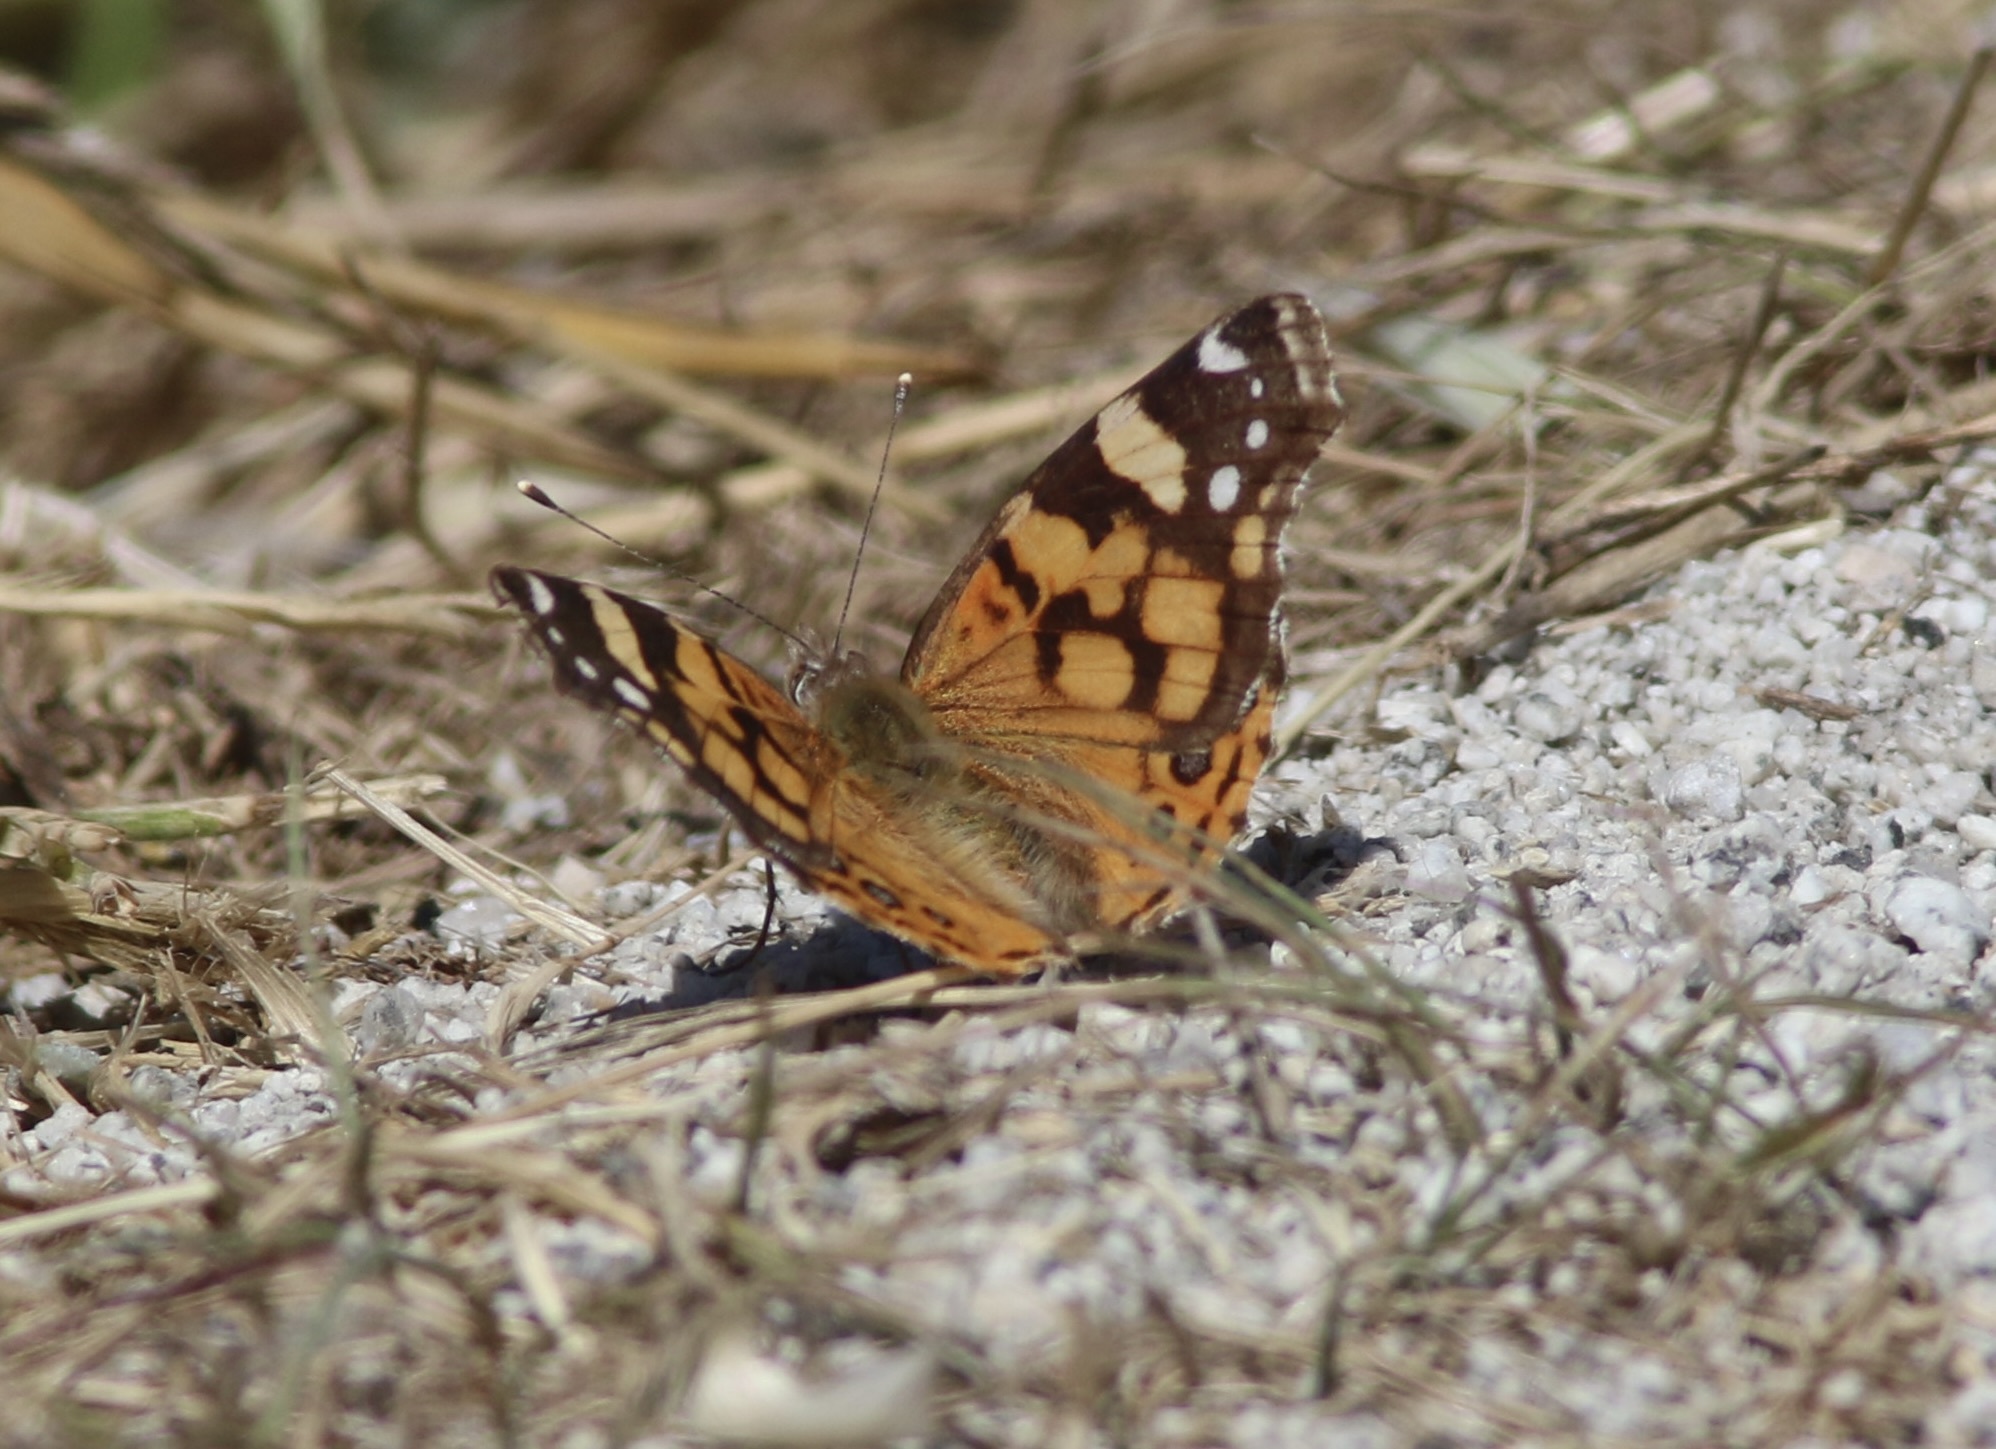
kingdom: Animalia
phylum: Arthropoda
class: Insecta
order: Lepidoptera
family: Nymphalidae
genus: Vanessa
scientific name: Vanessa annabella
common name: West coast lady
